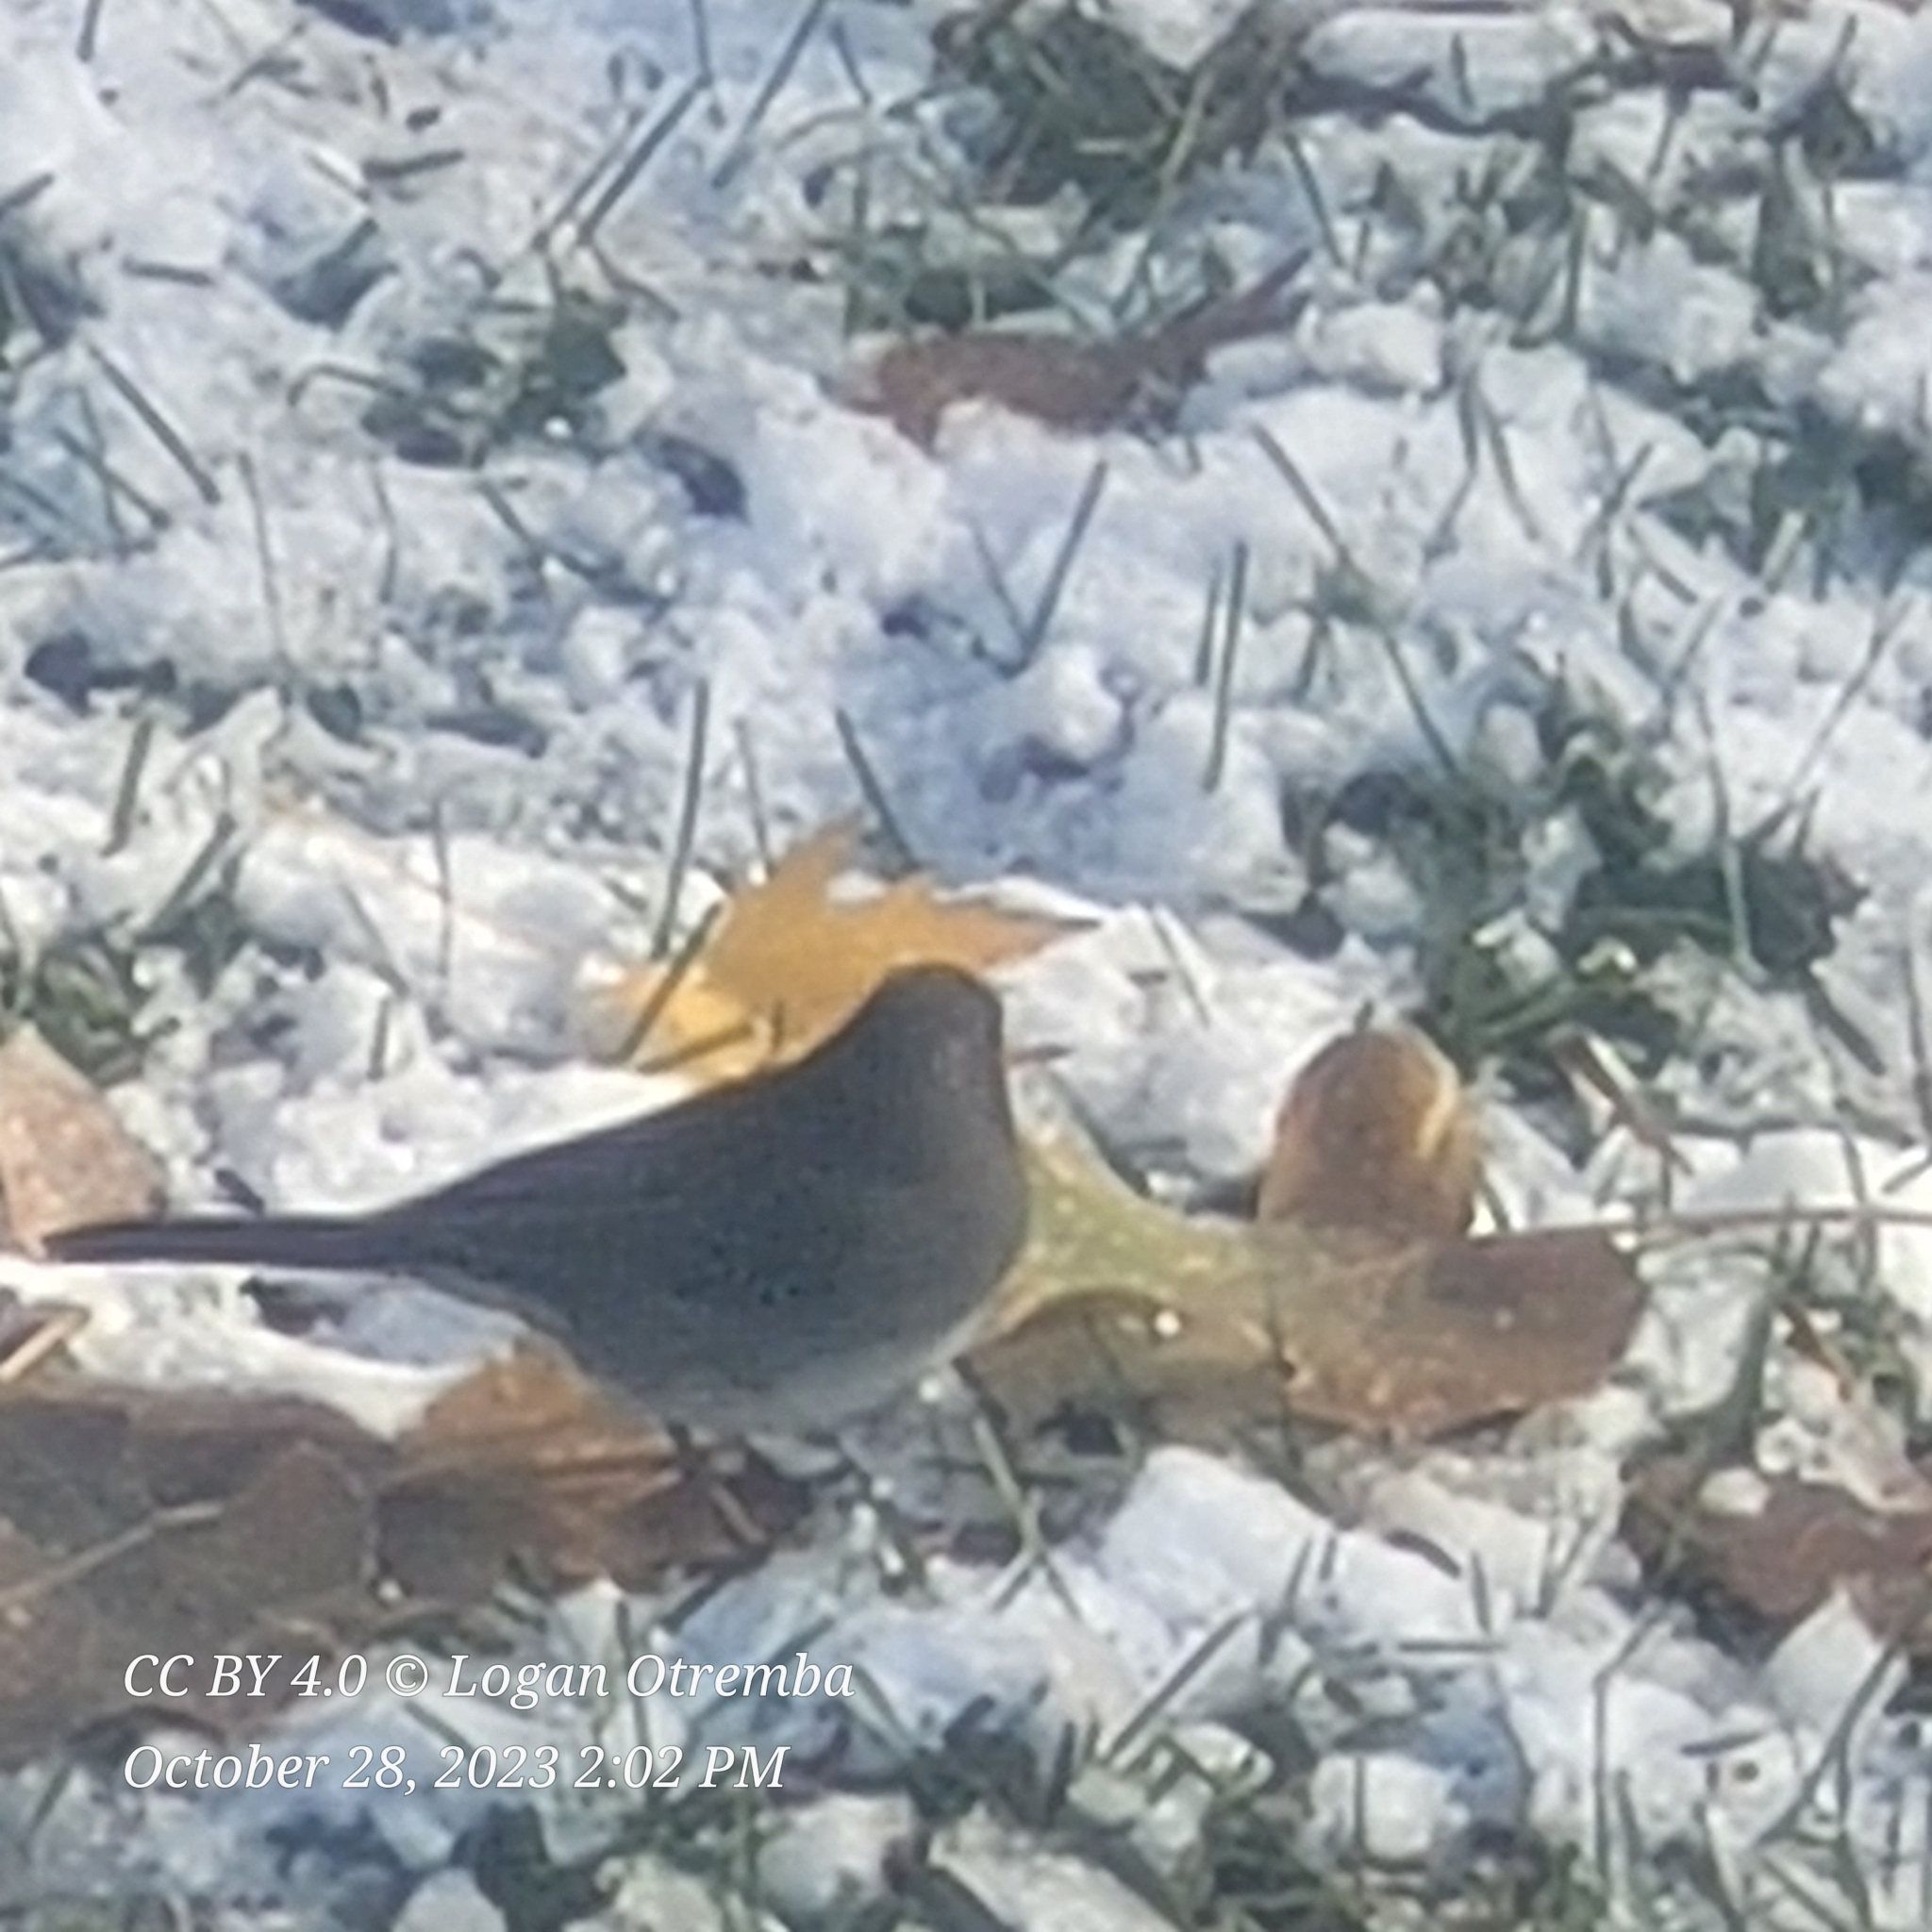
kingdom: Animalia
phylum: Chordata
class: Aves
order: Passeriformes
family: Passerellidae
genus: Junco
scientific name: Junco hyemalis
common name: Dark-eyed junco
